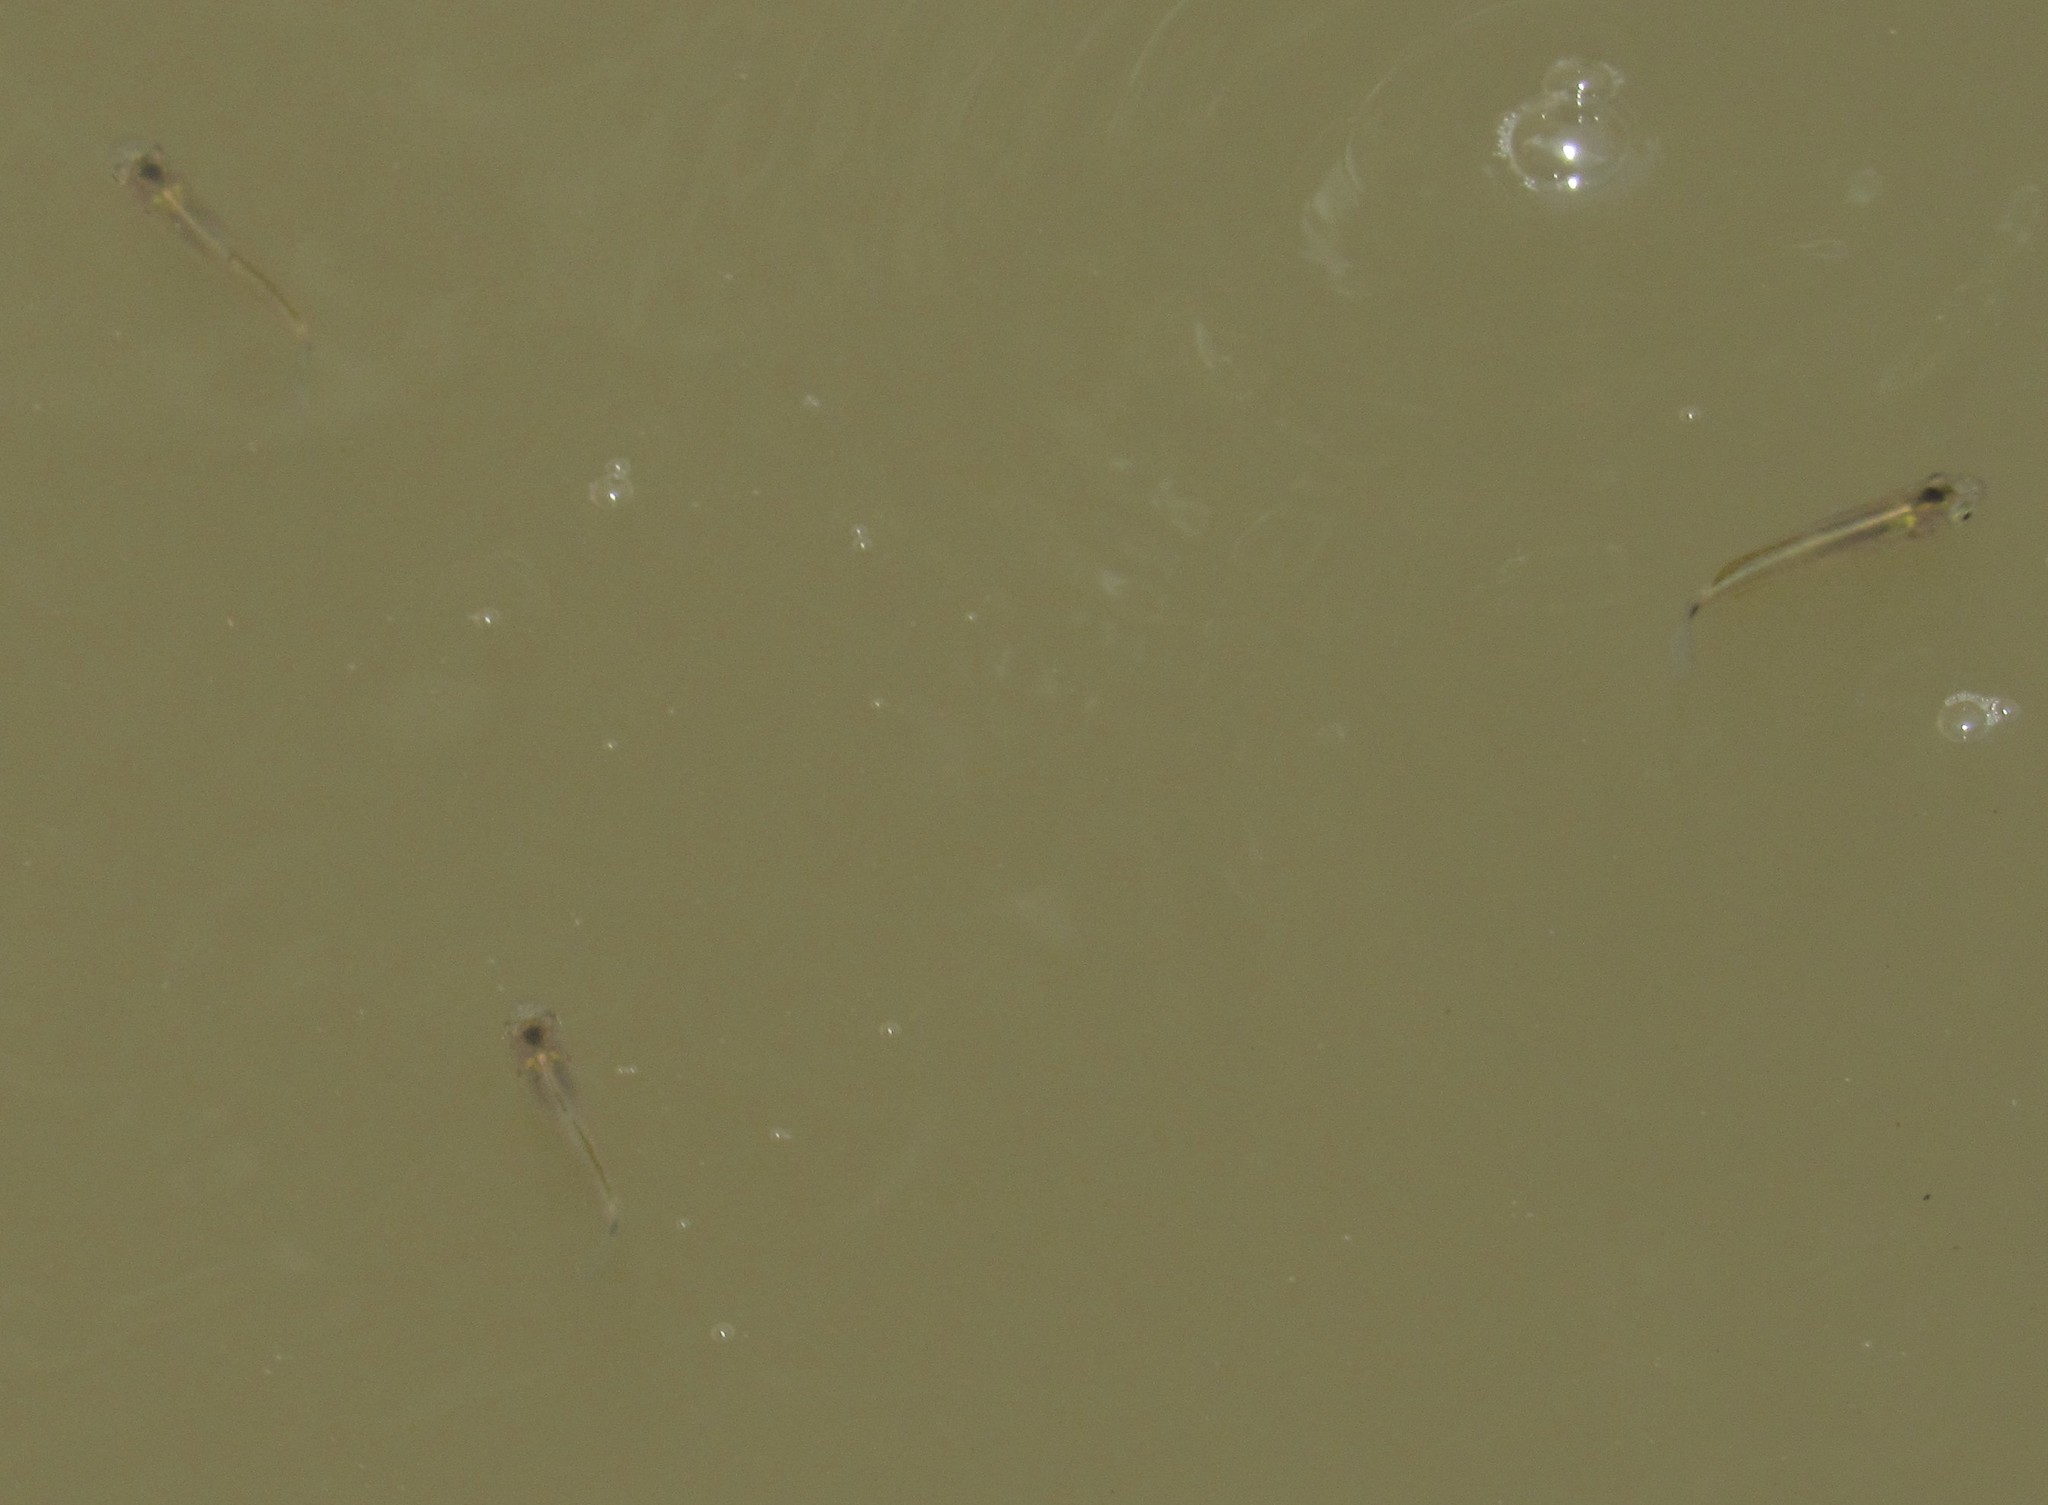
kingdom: Animalia
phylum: Chordata
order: Cyprinodontiformes
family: Poeciliidae
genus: Pseudoxiphophorus
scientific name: Pseudoxiphophorus bimaculatus
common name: Twospot livebearer
